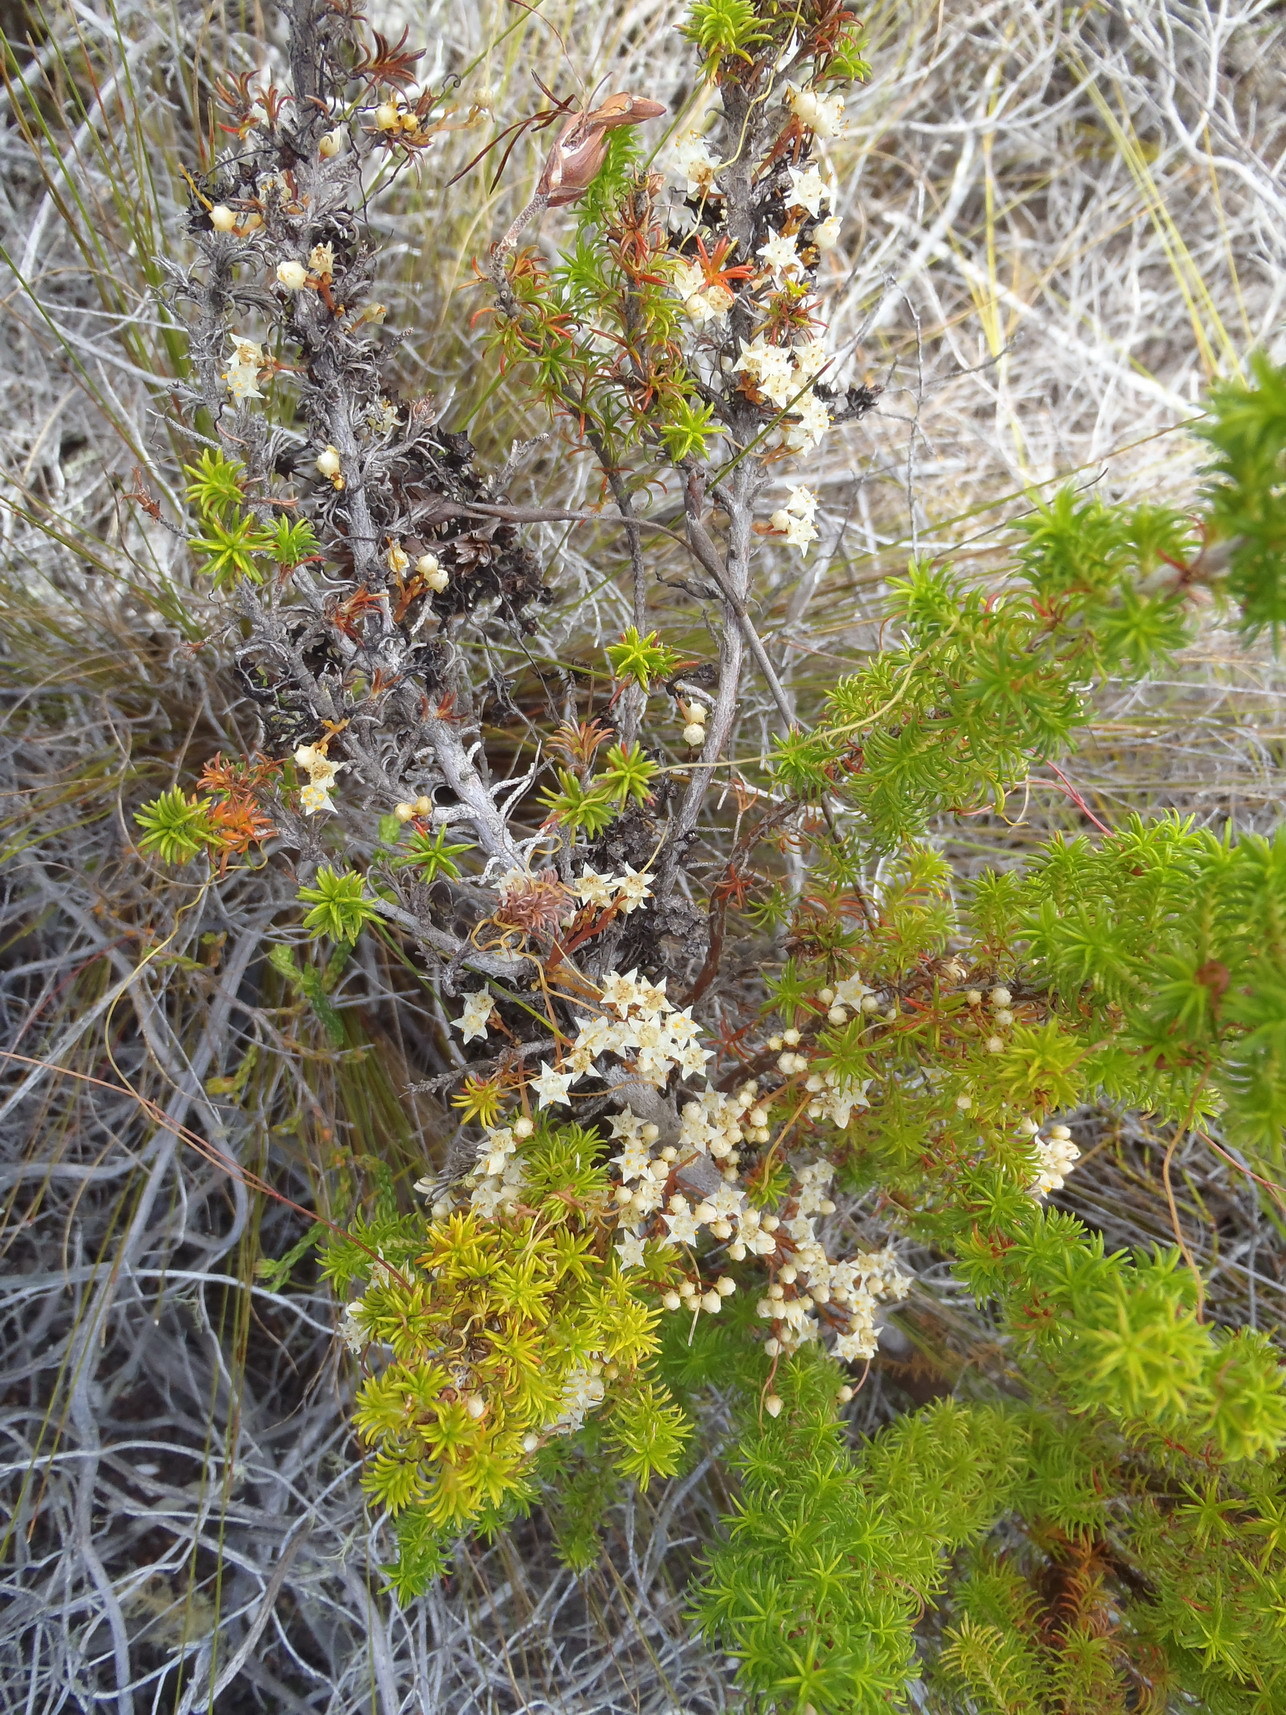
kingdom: Plantae
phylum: Tracheophyta
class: Magnoliopsida
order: Solanales
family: Convolvulaceae
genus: Cuscuta
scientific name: Cuscuta angulata
